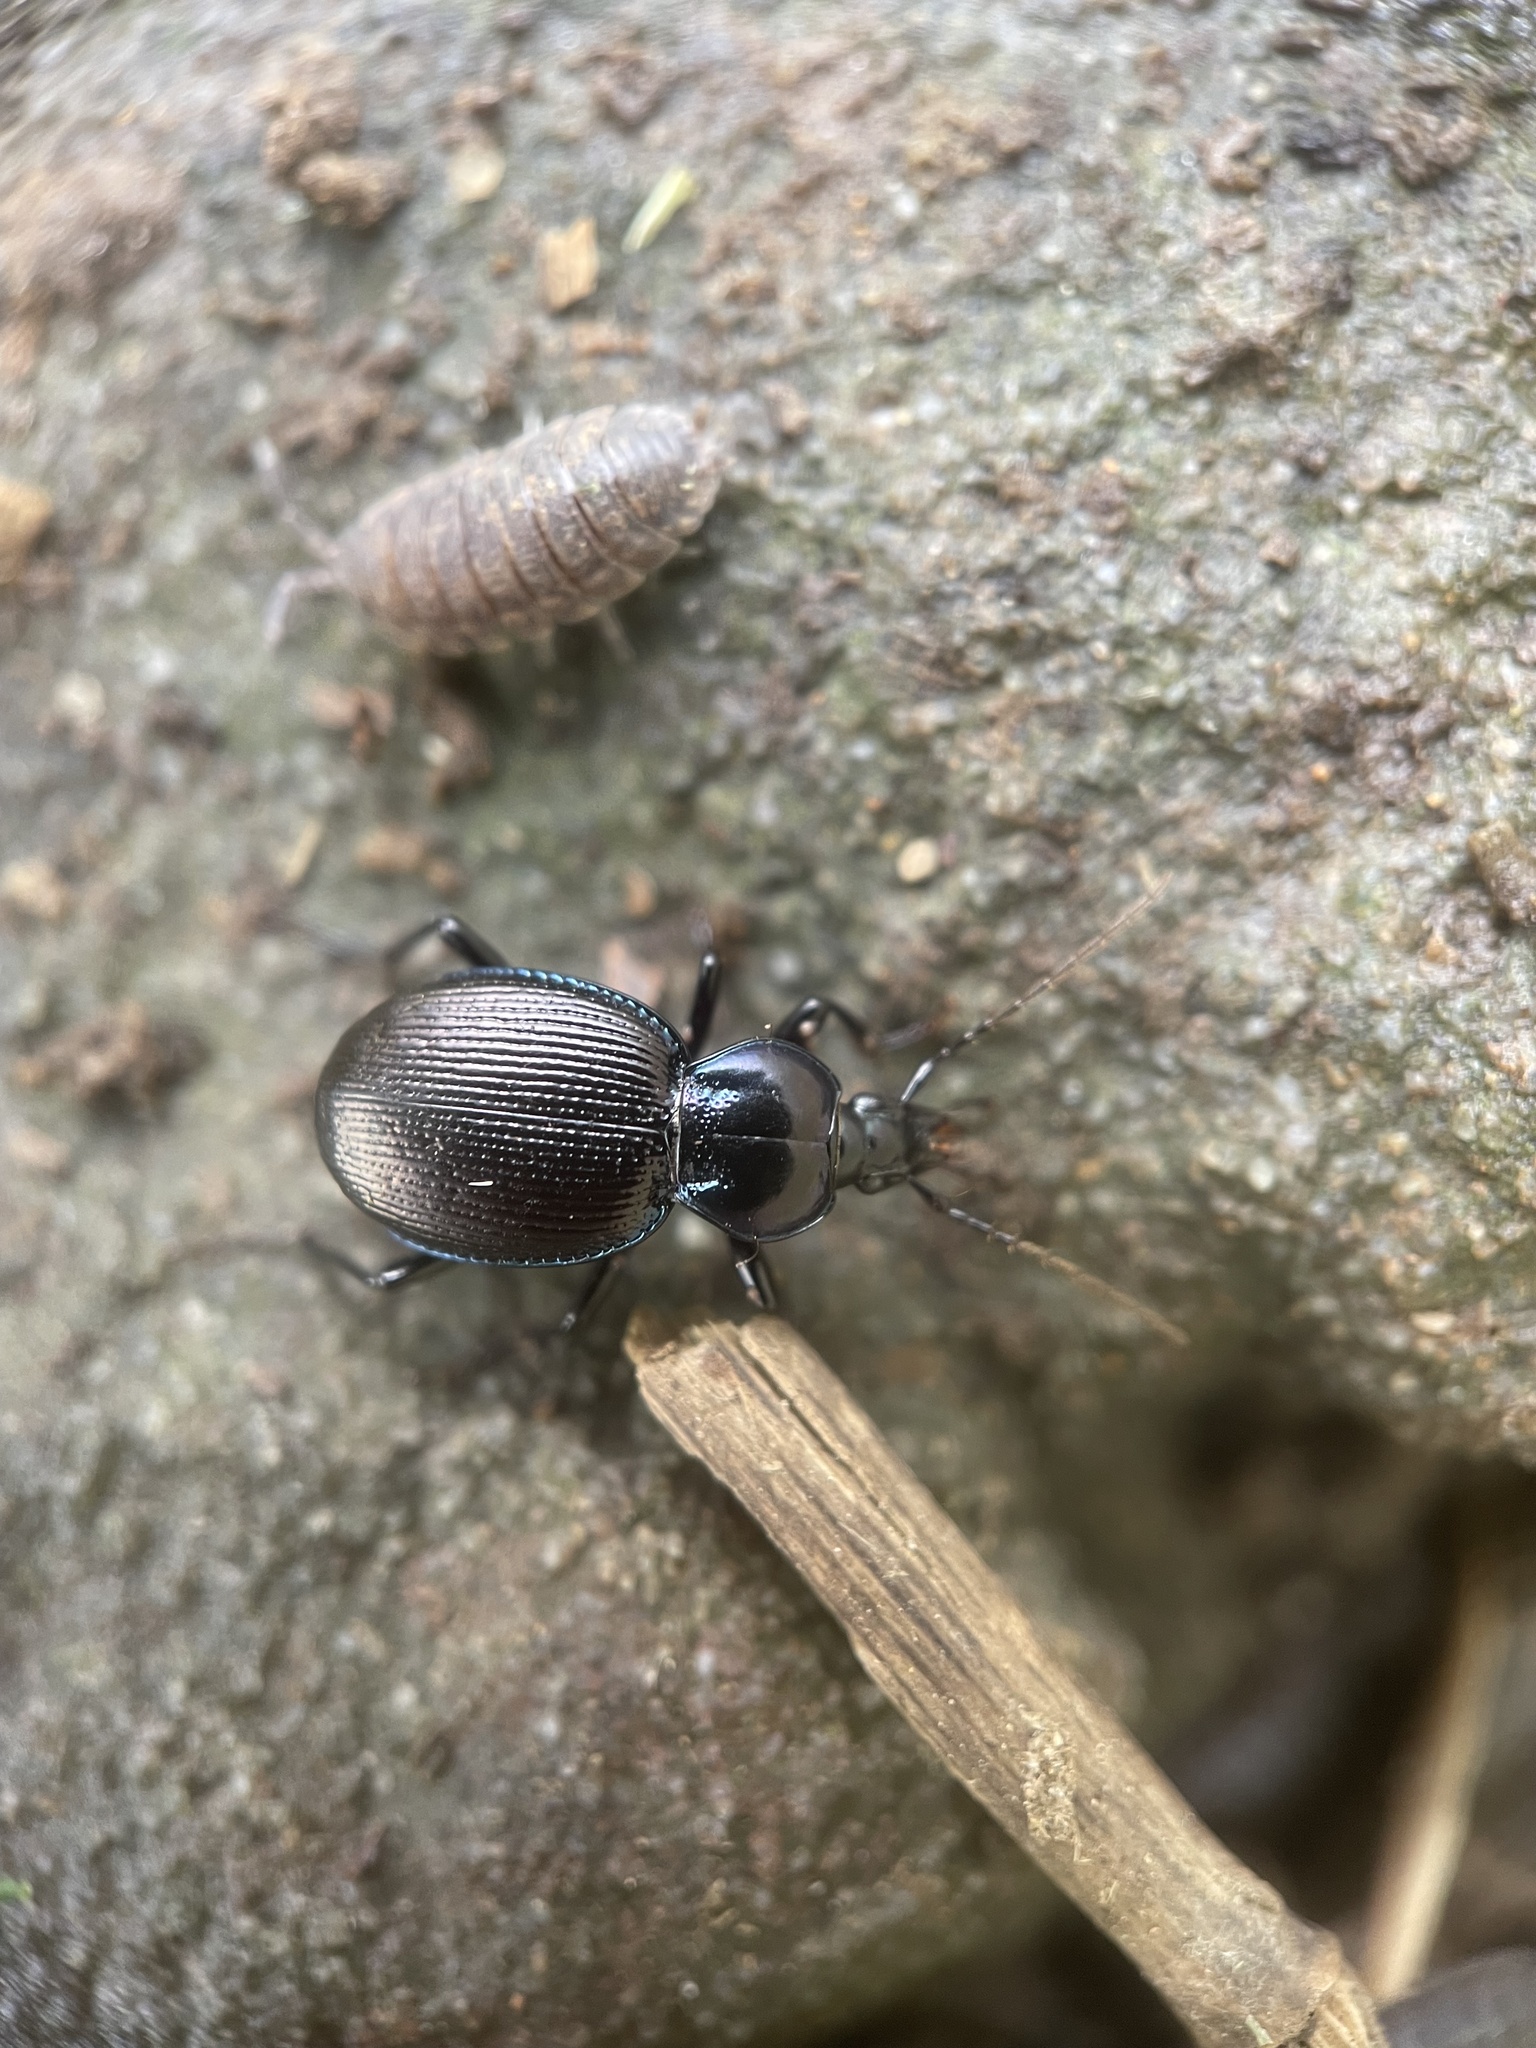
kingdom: Animalia
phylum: Arthropoda
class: Insecta
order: Coleoptera
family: Carabidae
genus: Sphaeroderus
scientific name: Sphaeroderus stenostomus
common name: Small snail-eating ground beetle
